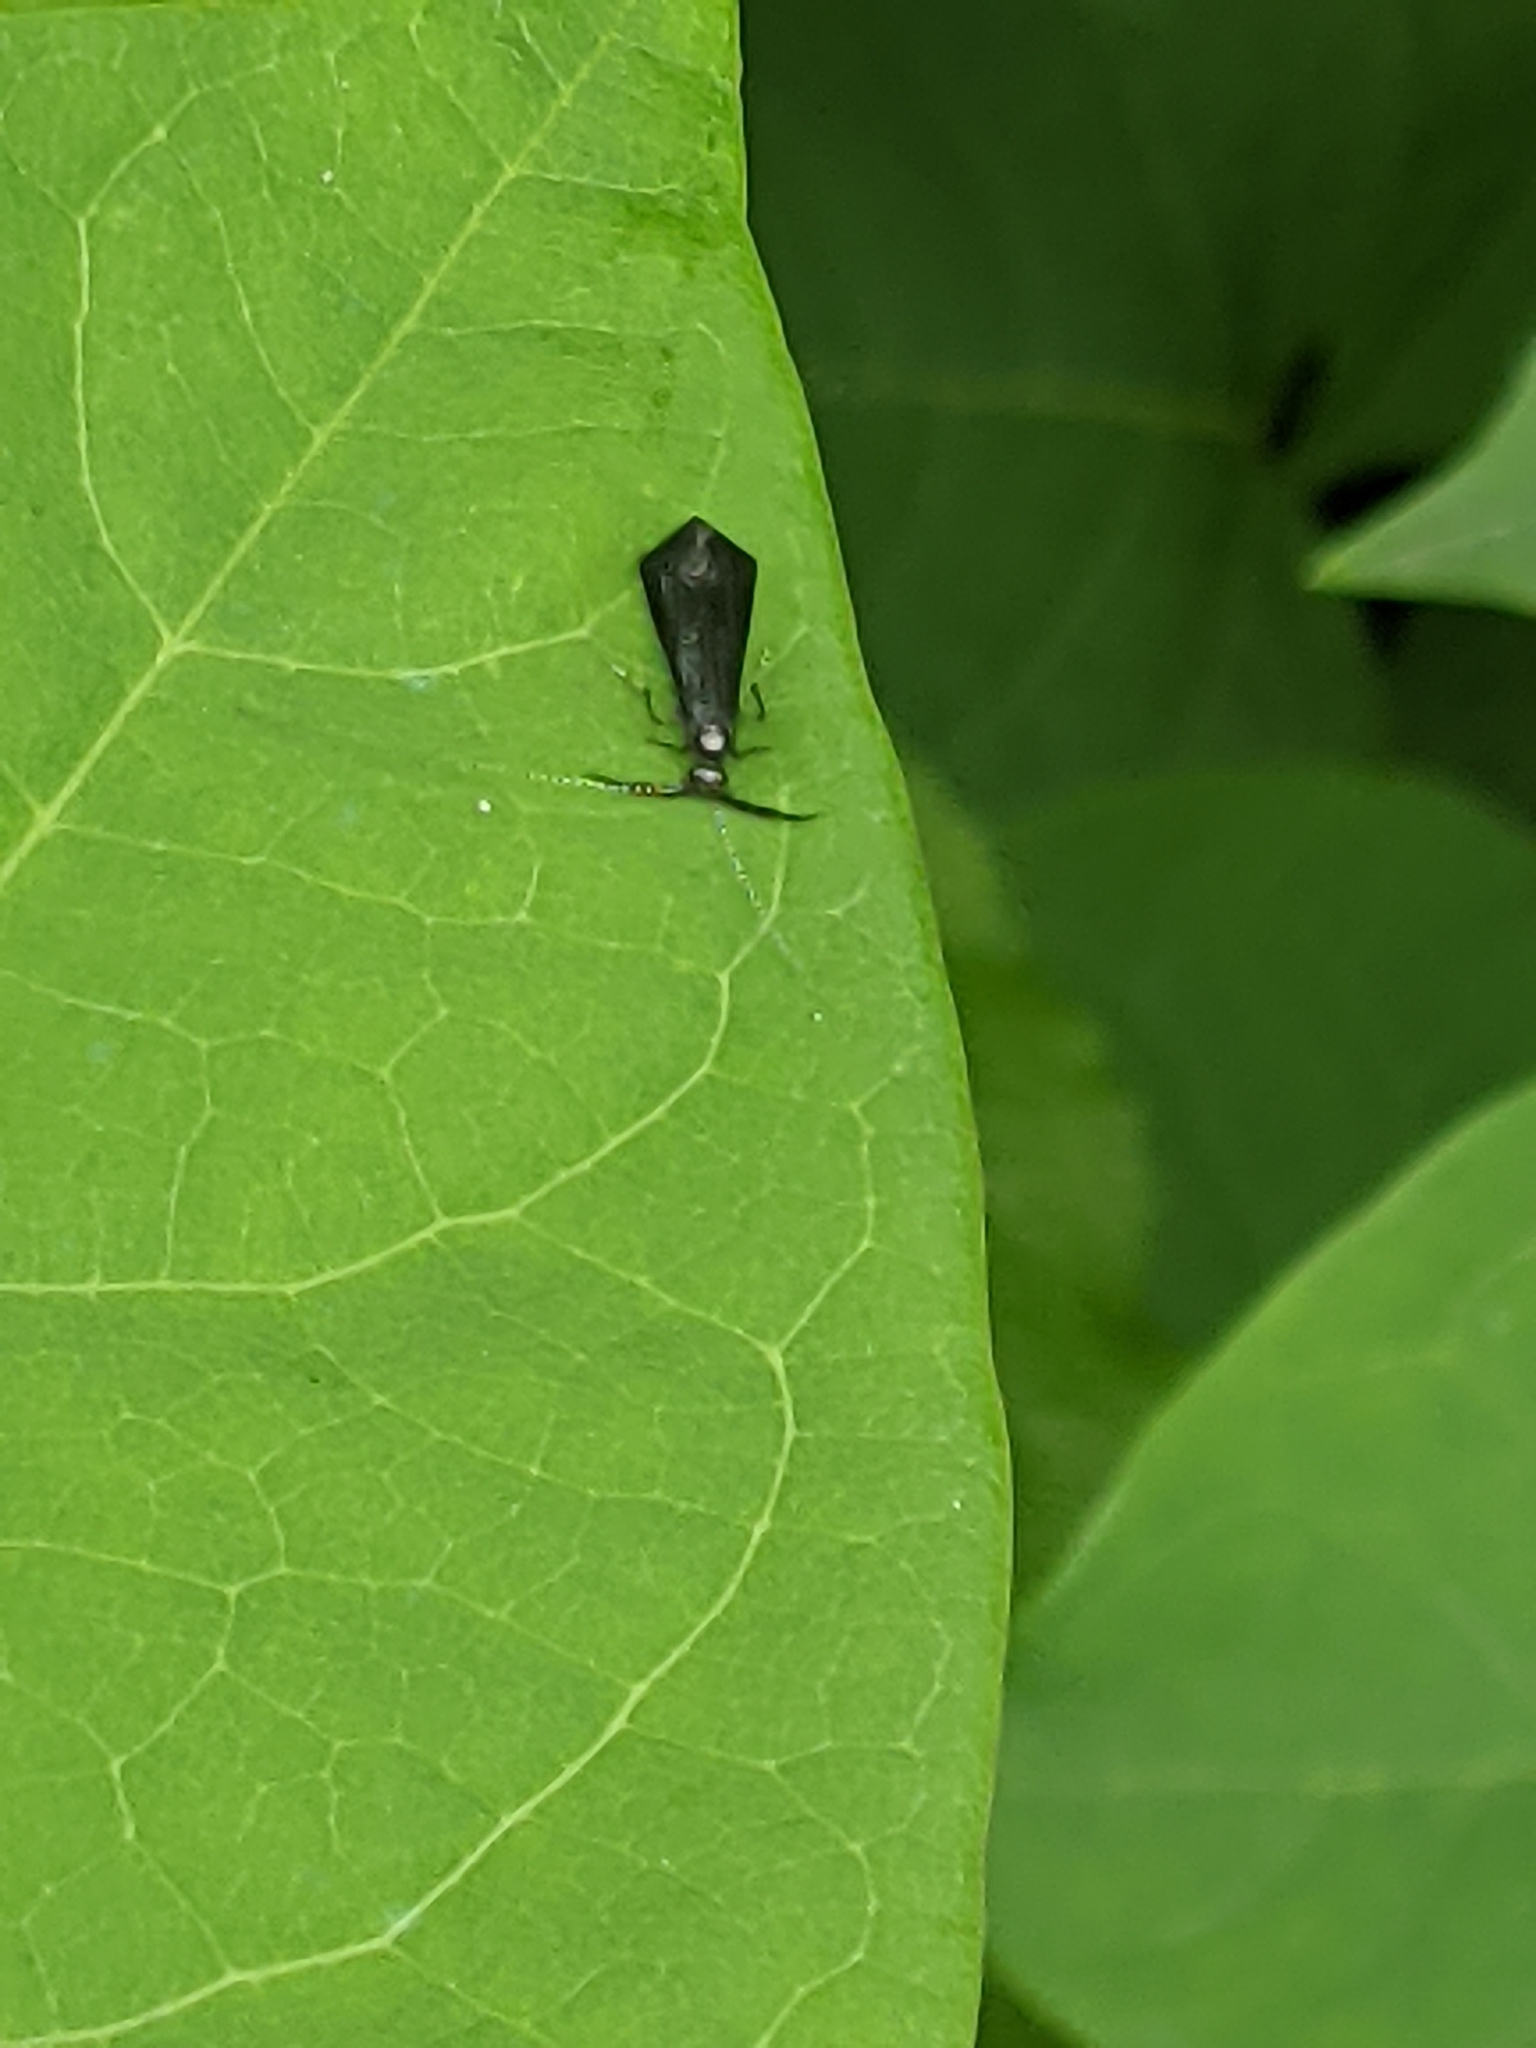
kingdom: Animalia
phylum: Arthropoda
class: Insecta
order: Trichoptera
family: Leptoceridae
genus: Mystacides
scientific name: Mystacides sepulchralis
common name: Black dancer caddisfly
